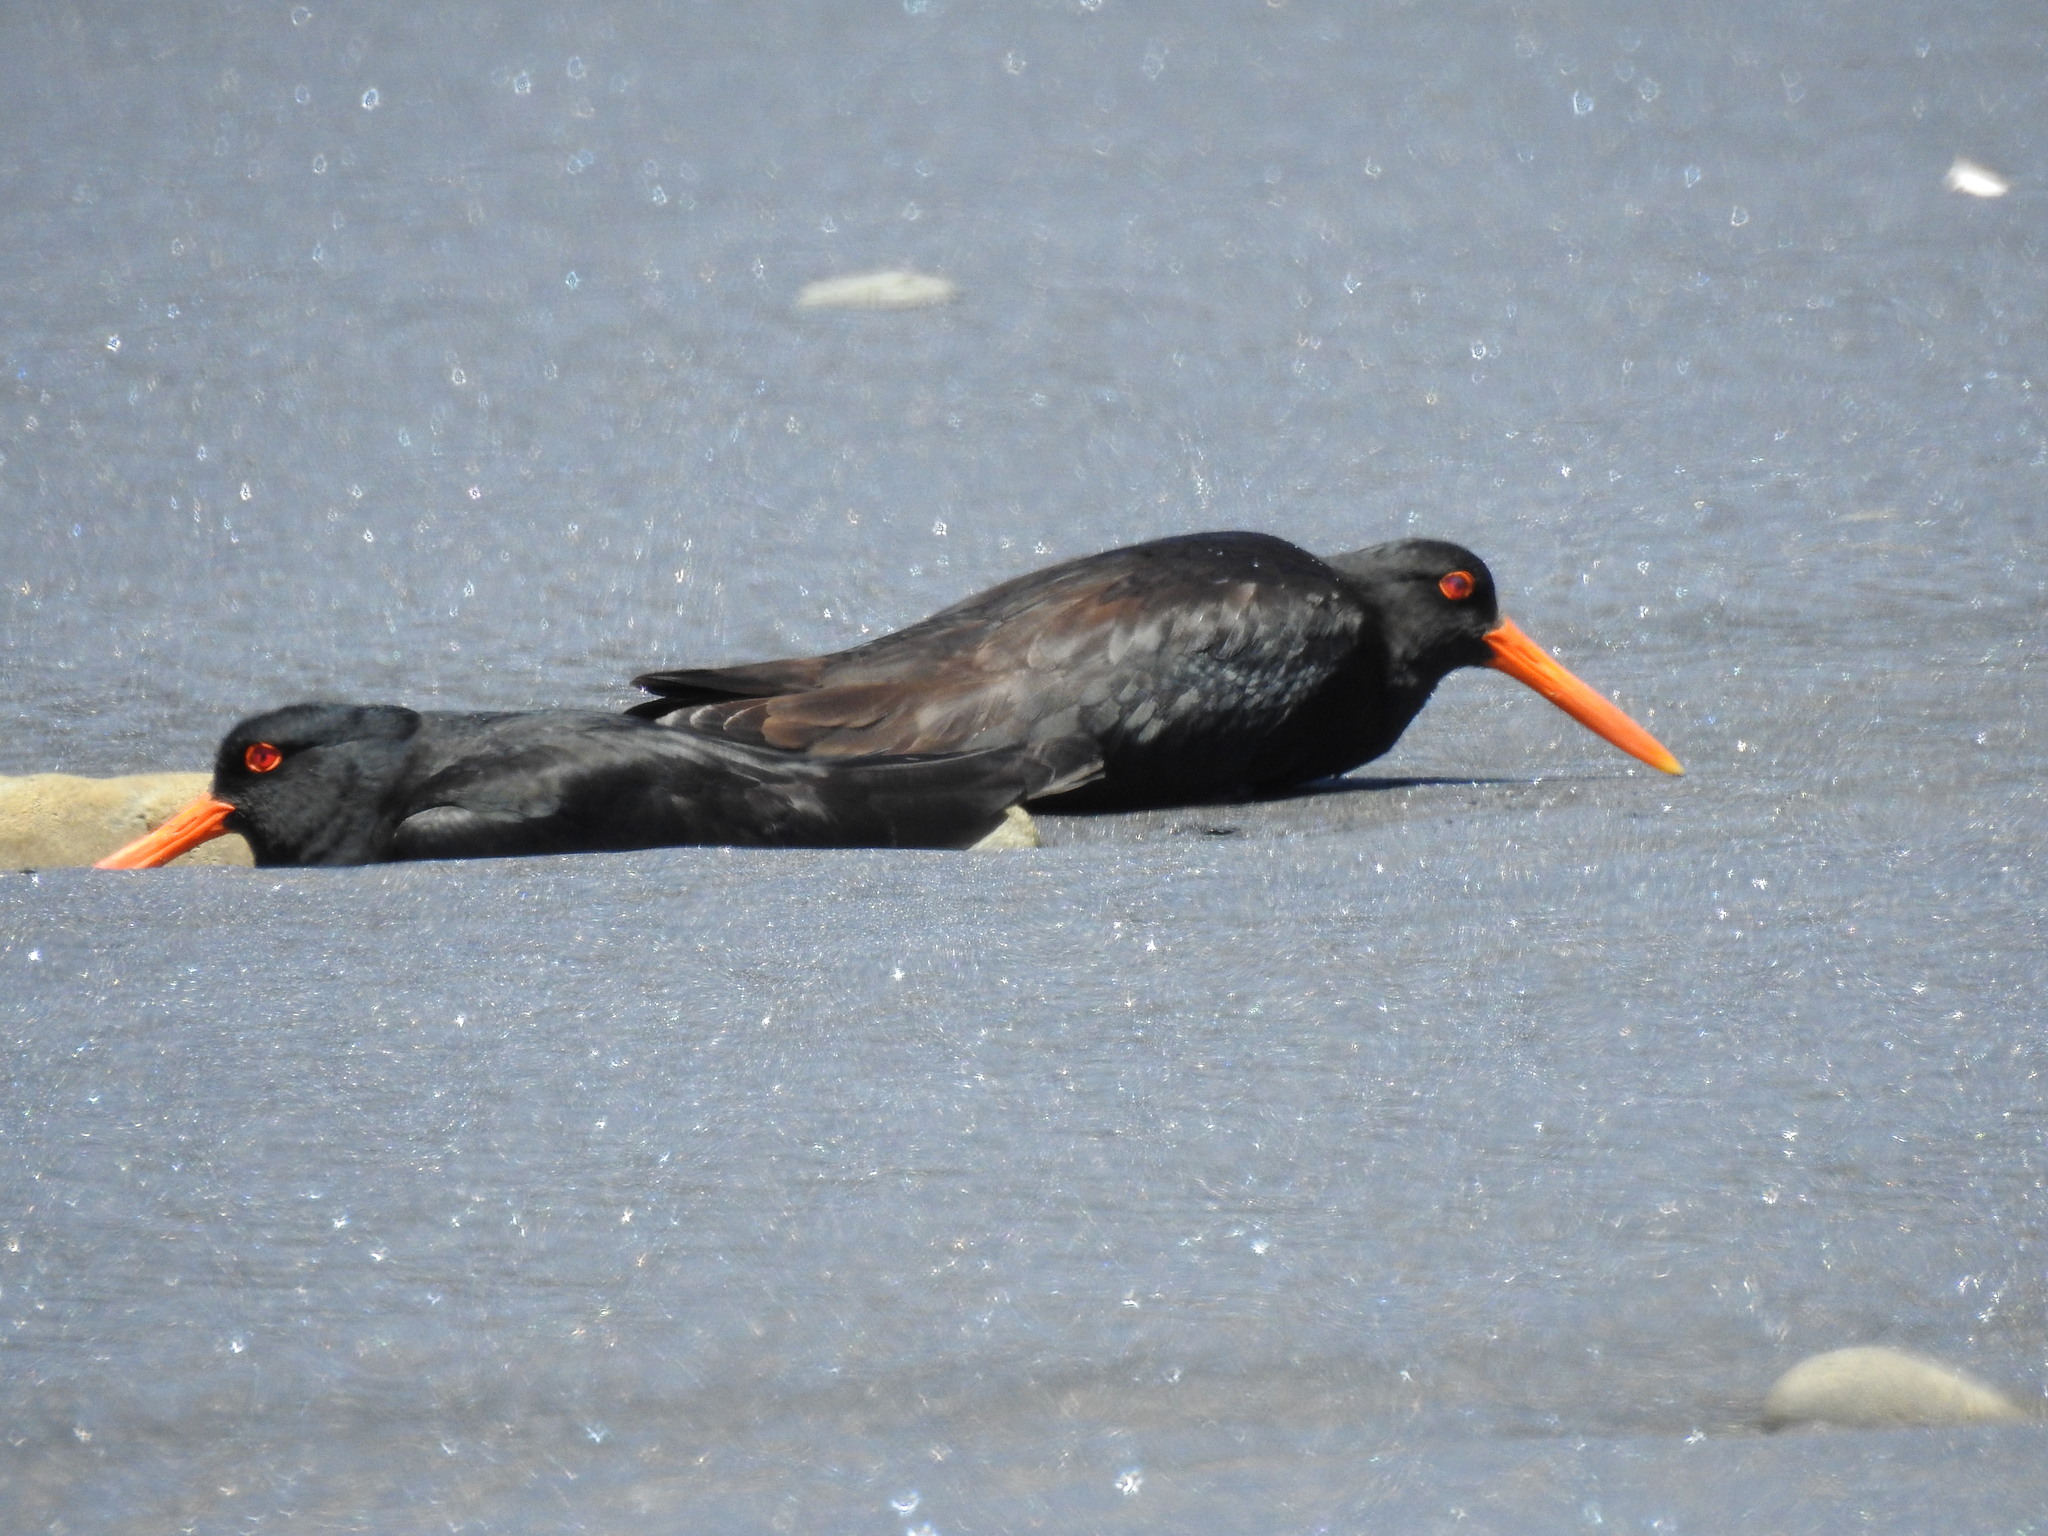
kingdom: Animalia
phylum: Chordata
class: Aves
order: Charadriiformes
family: Haematopodidae
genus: Haematopus
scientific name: Haematopus unicolor
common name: Variable oystercatcher
